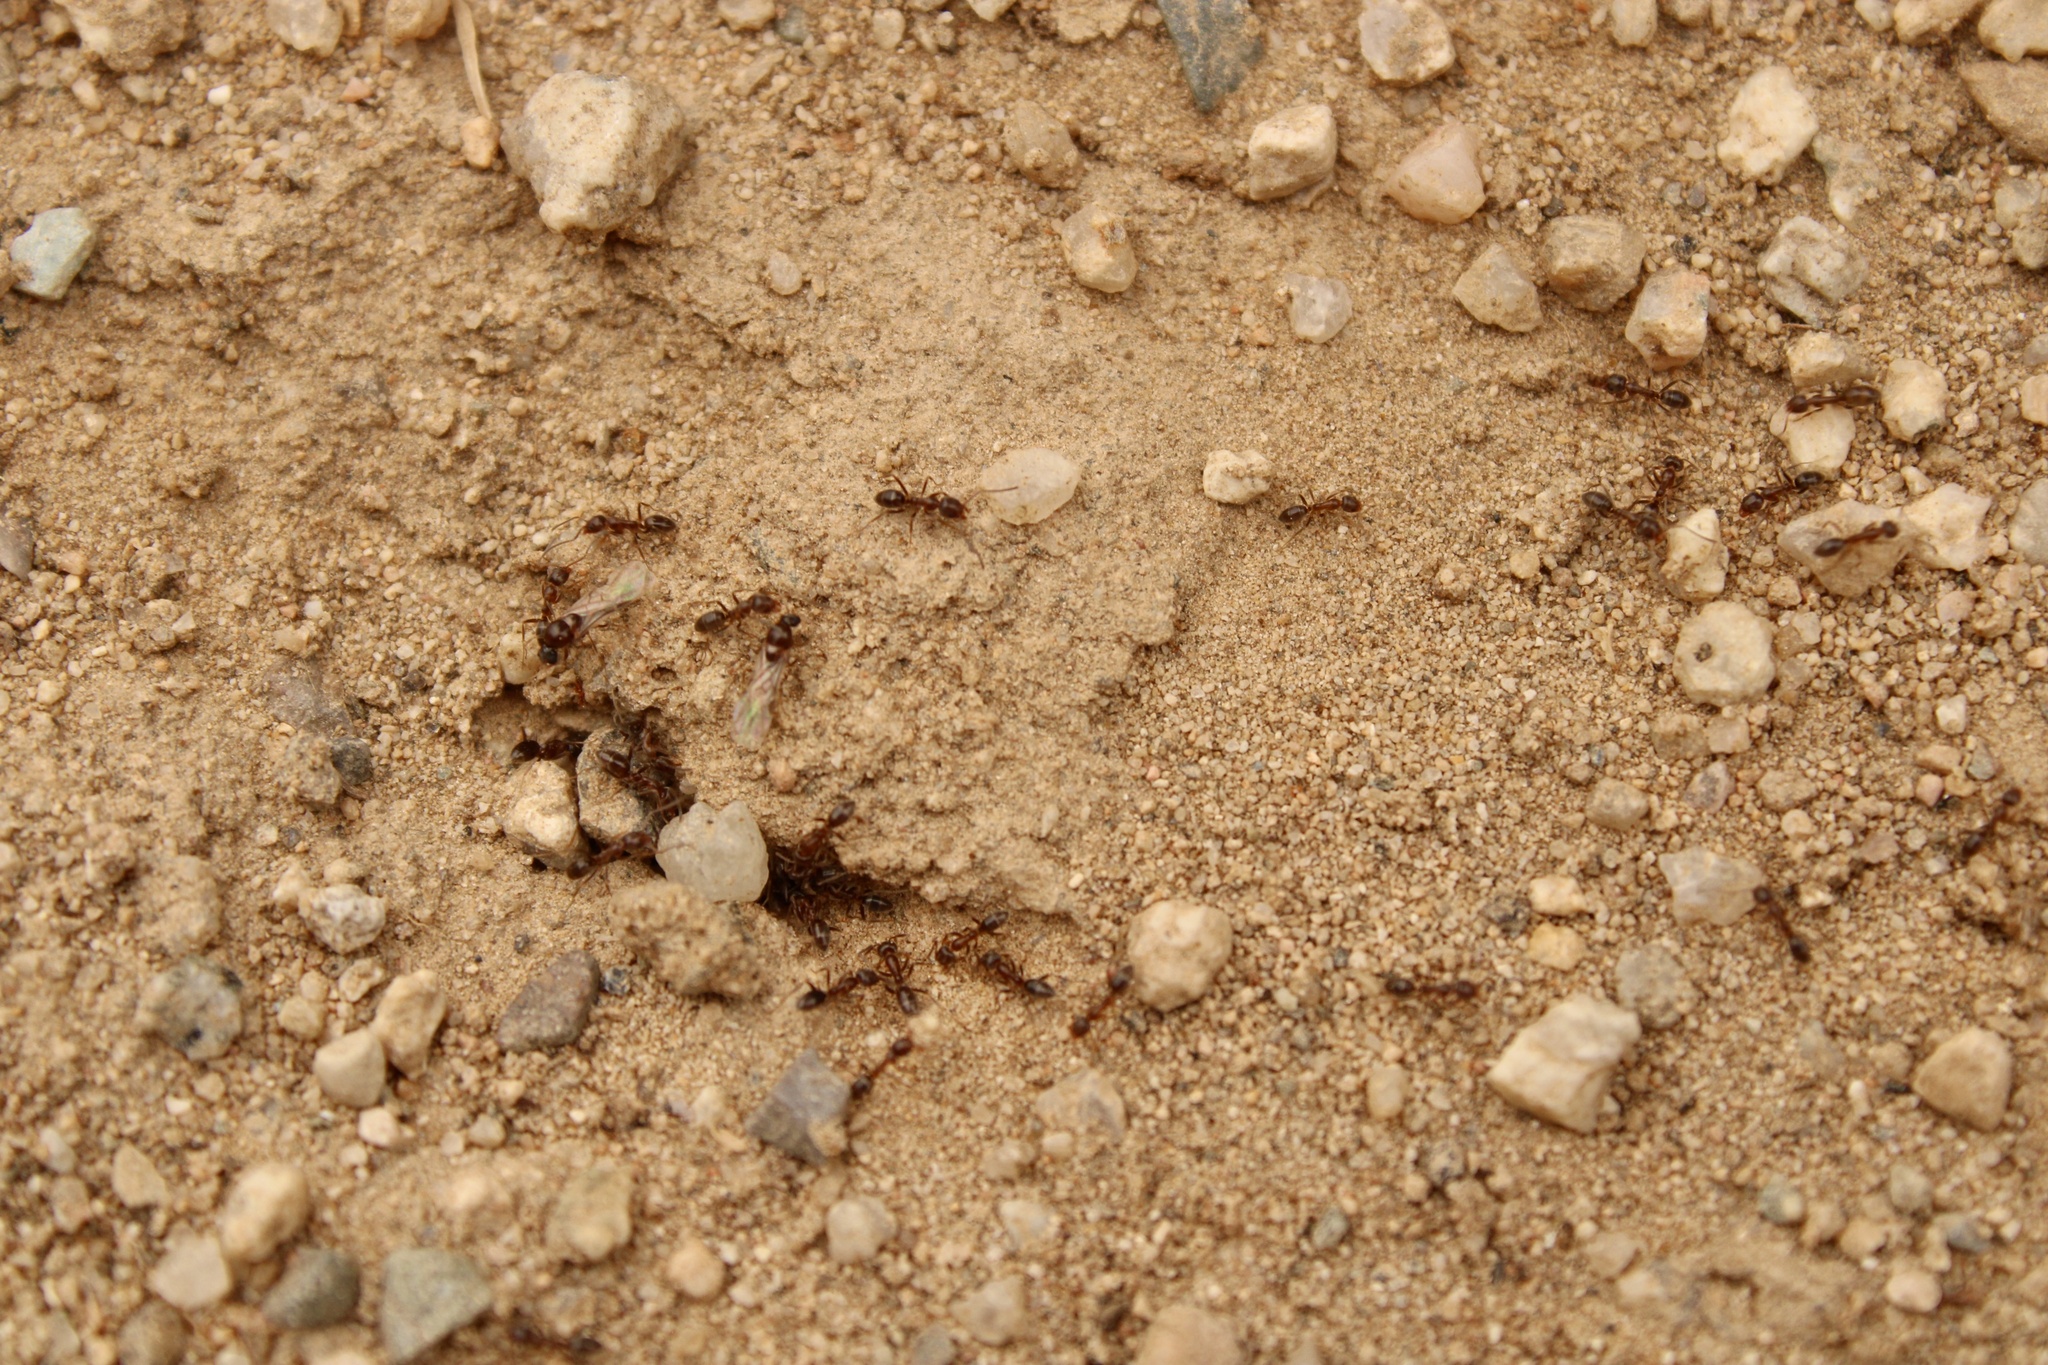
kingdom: Animalia
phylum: Arthropoda
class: Insecta
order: Hymenoptera
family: Formicidae
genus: Linepithema
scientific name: Linepithema humile
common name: Argentine ant
